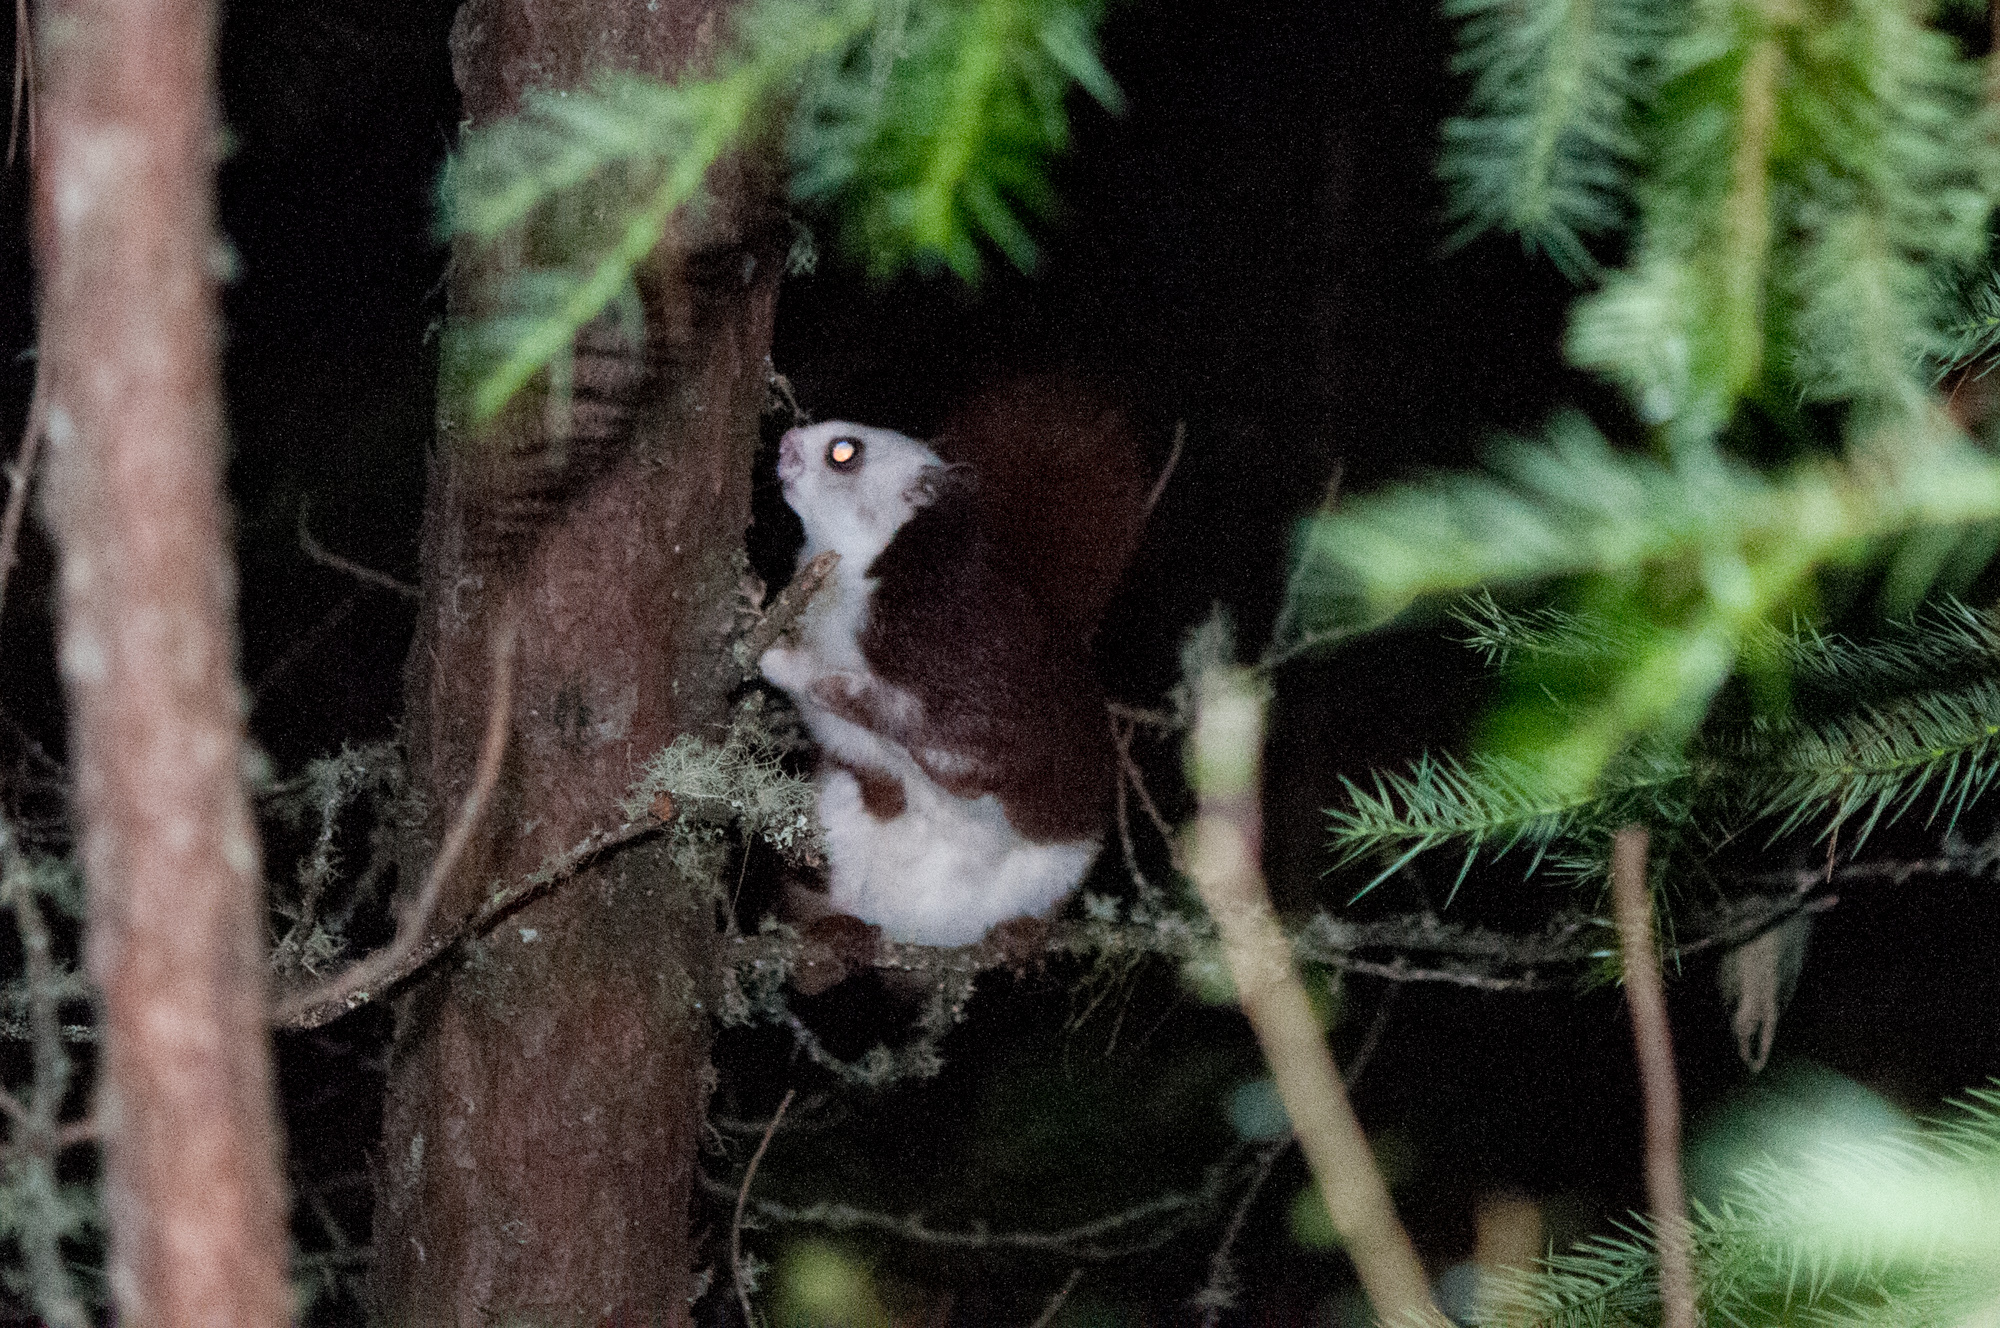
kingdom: Animalia
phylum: Chordata
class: Mammalia
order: Rodentia
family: Sciuridae
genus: Petaurista
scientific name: Petaurista lena
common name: Taiwan giant flying squirrel
